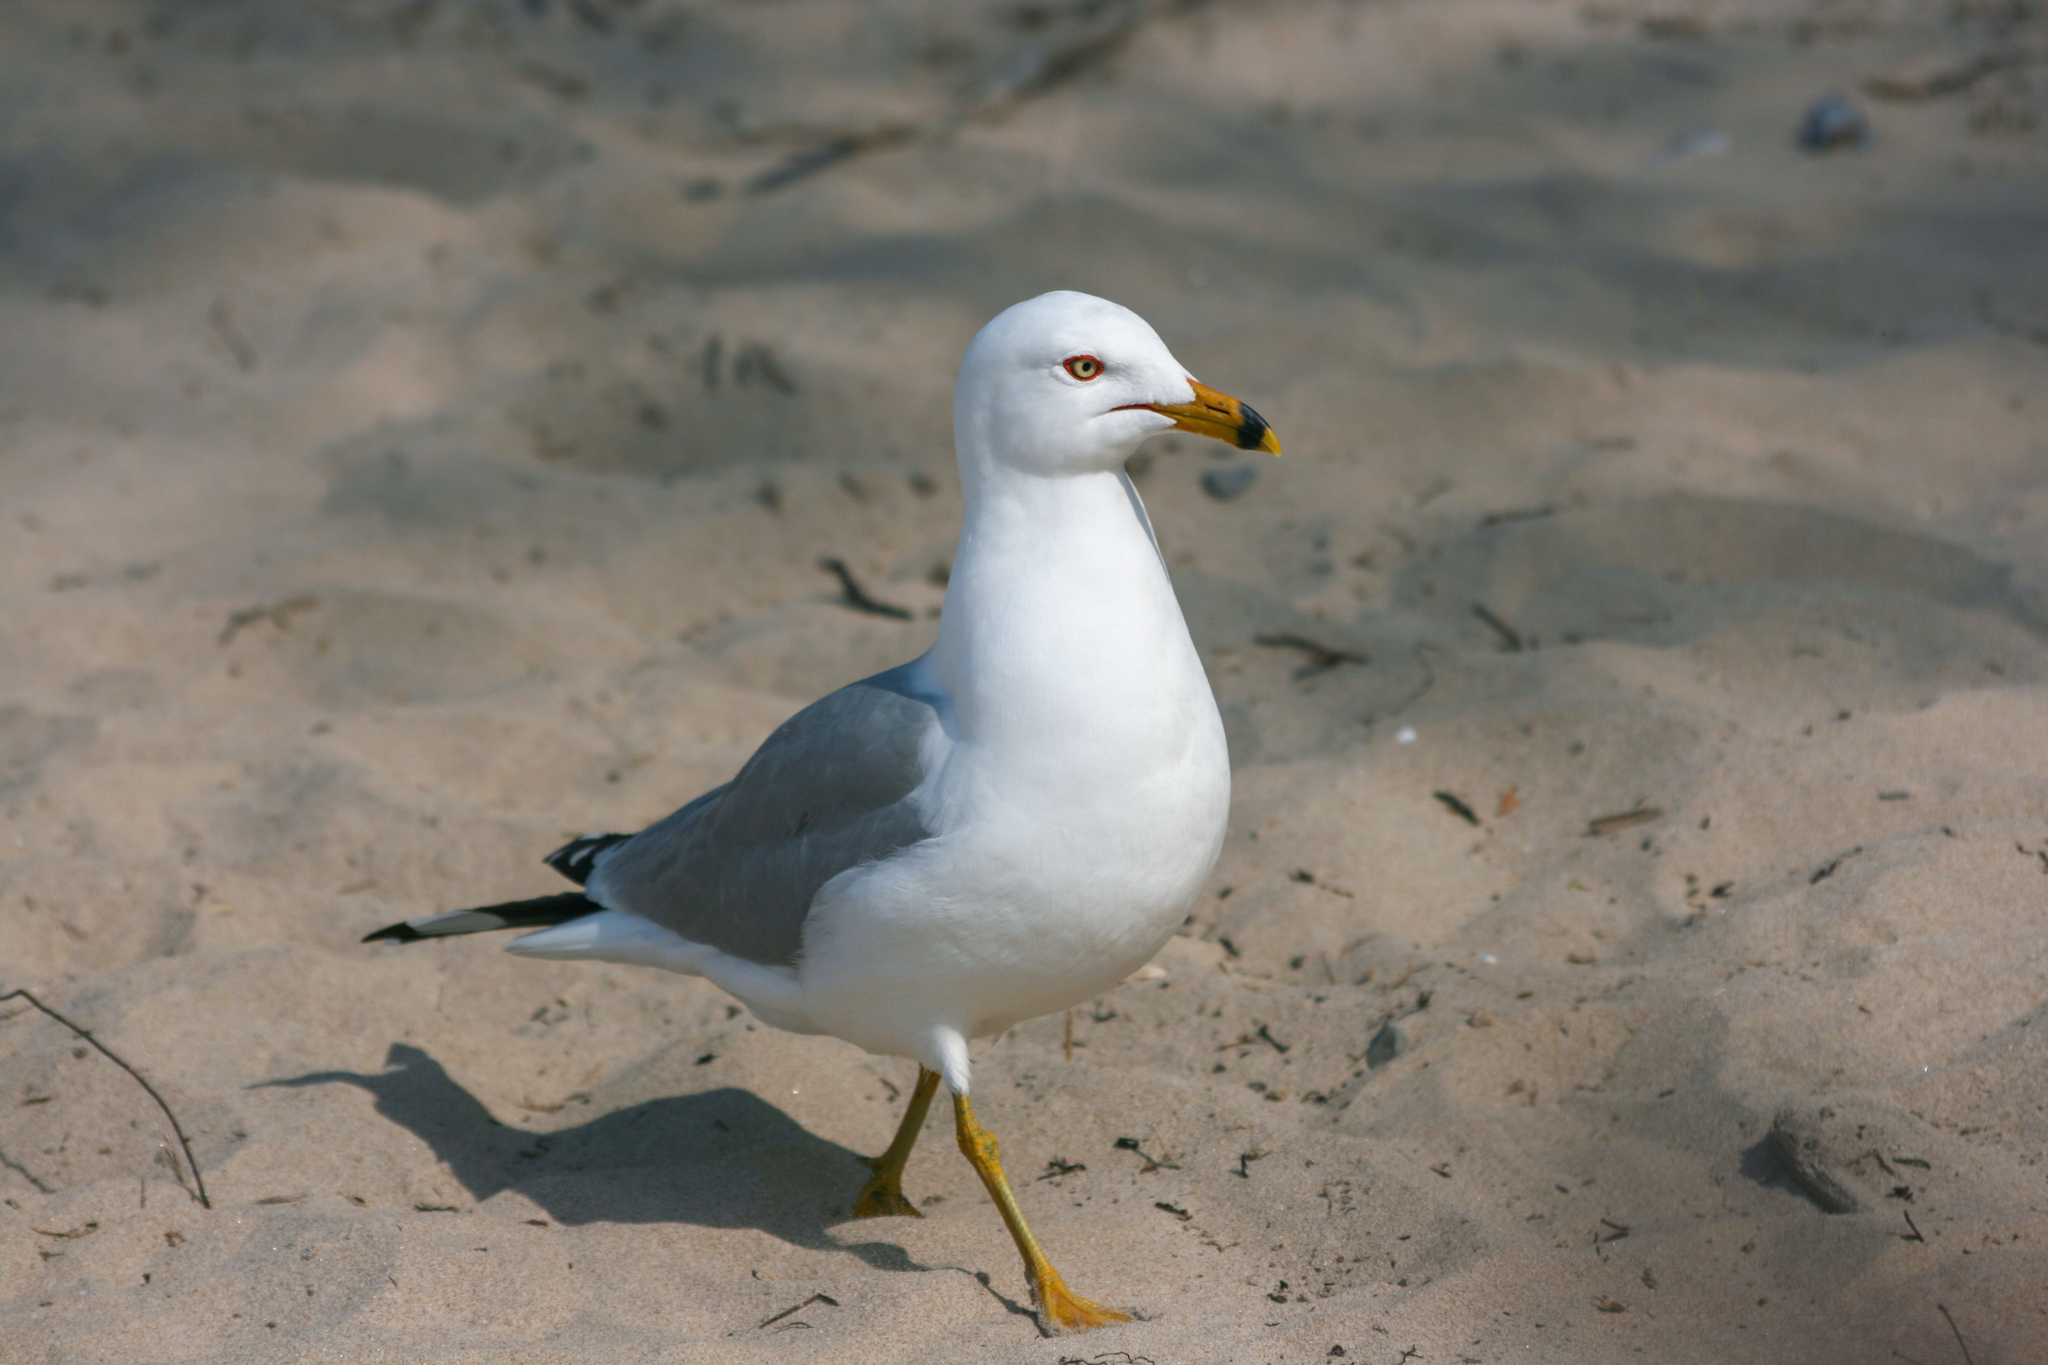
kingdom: Animalia
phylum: Chordata
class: Aves
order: Charadriiformes
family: Laridae
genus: Larus
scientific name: Larus delawarensis
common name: Ring-billed gull
